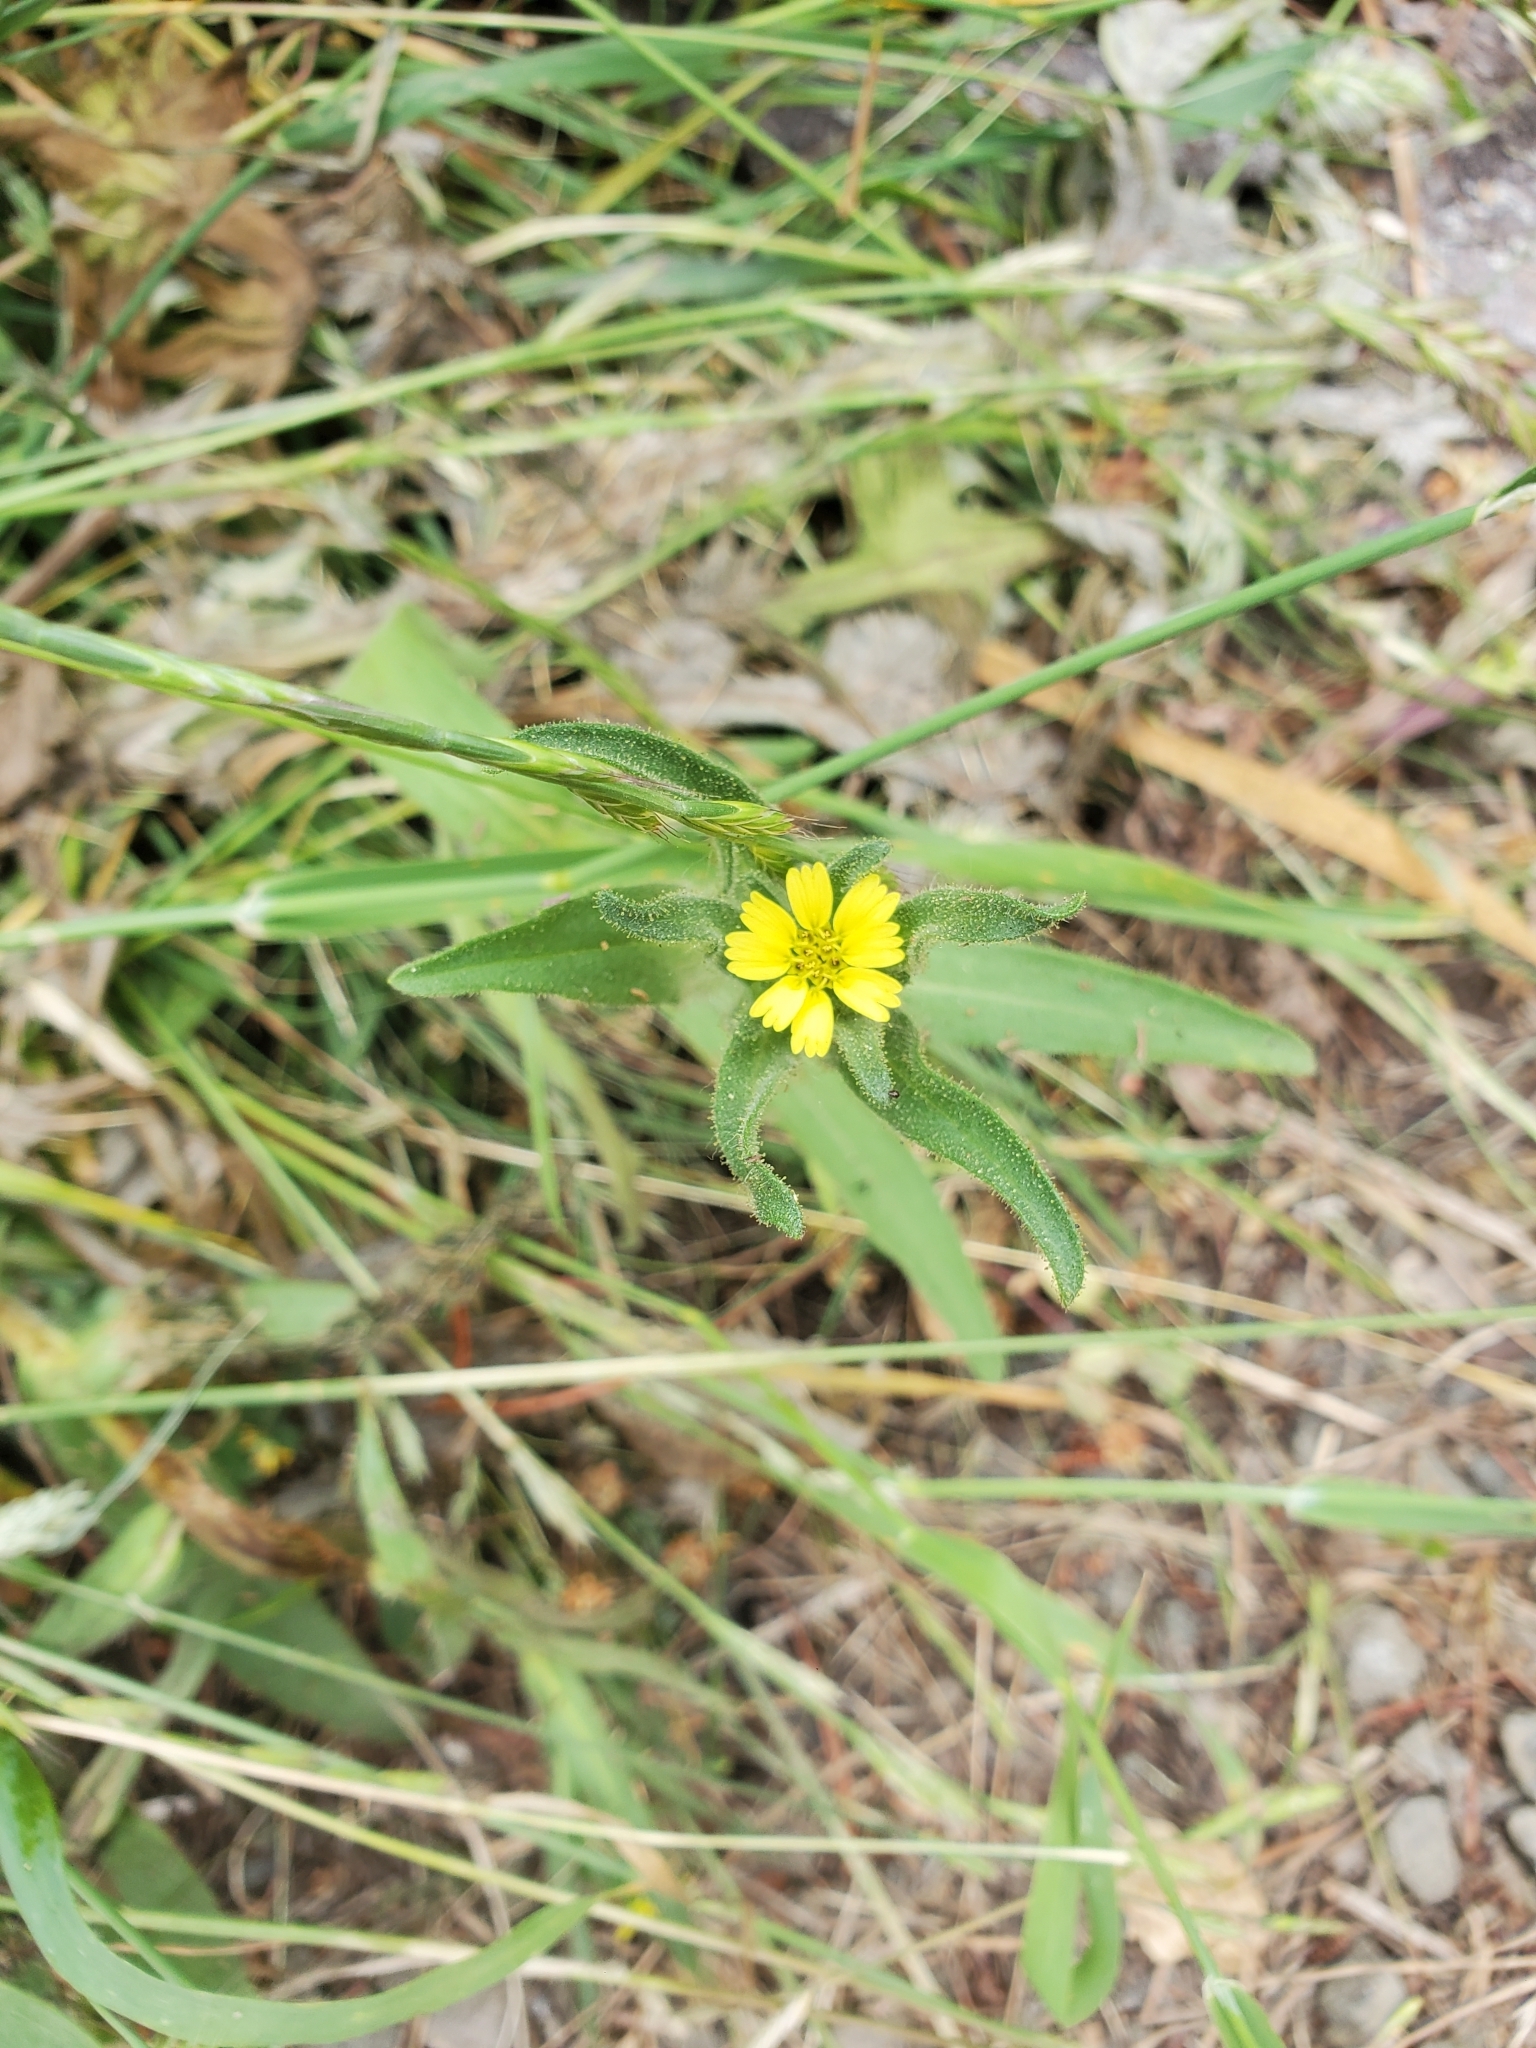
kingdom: Plantae
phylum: Tracheophyta
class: Magnoliopsida
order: Asterales
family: Asteraceae
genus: Madia
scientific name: Madia sativa
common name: Coast tarweed
